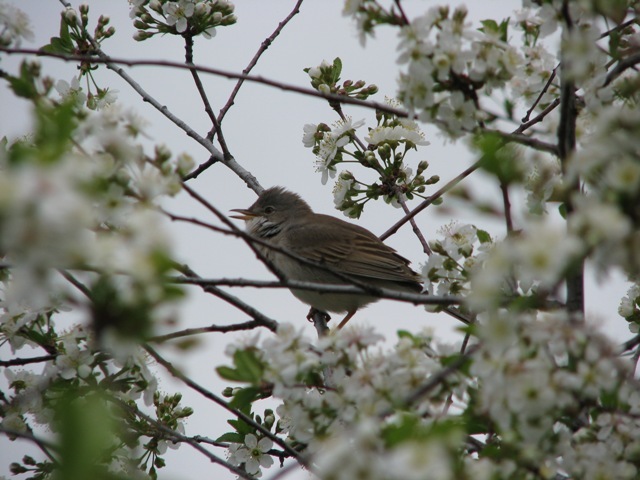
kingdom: Animalia
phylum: Chordata
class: Aves
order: Passeriformes
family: Sylviidae
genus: Sylvia
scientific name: Sylvia communis
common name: Common whitethroat
